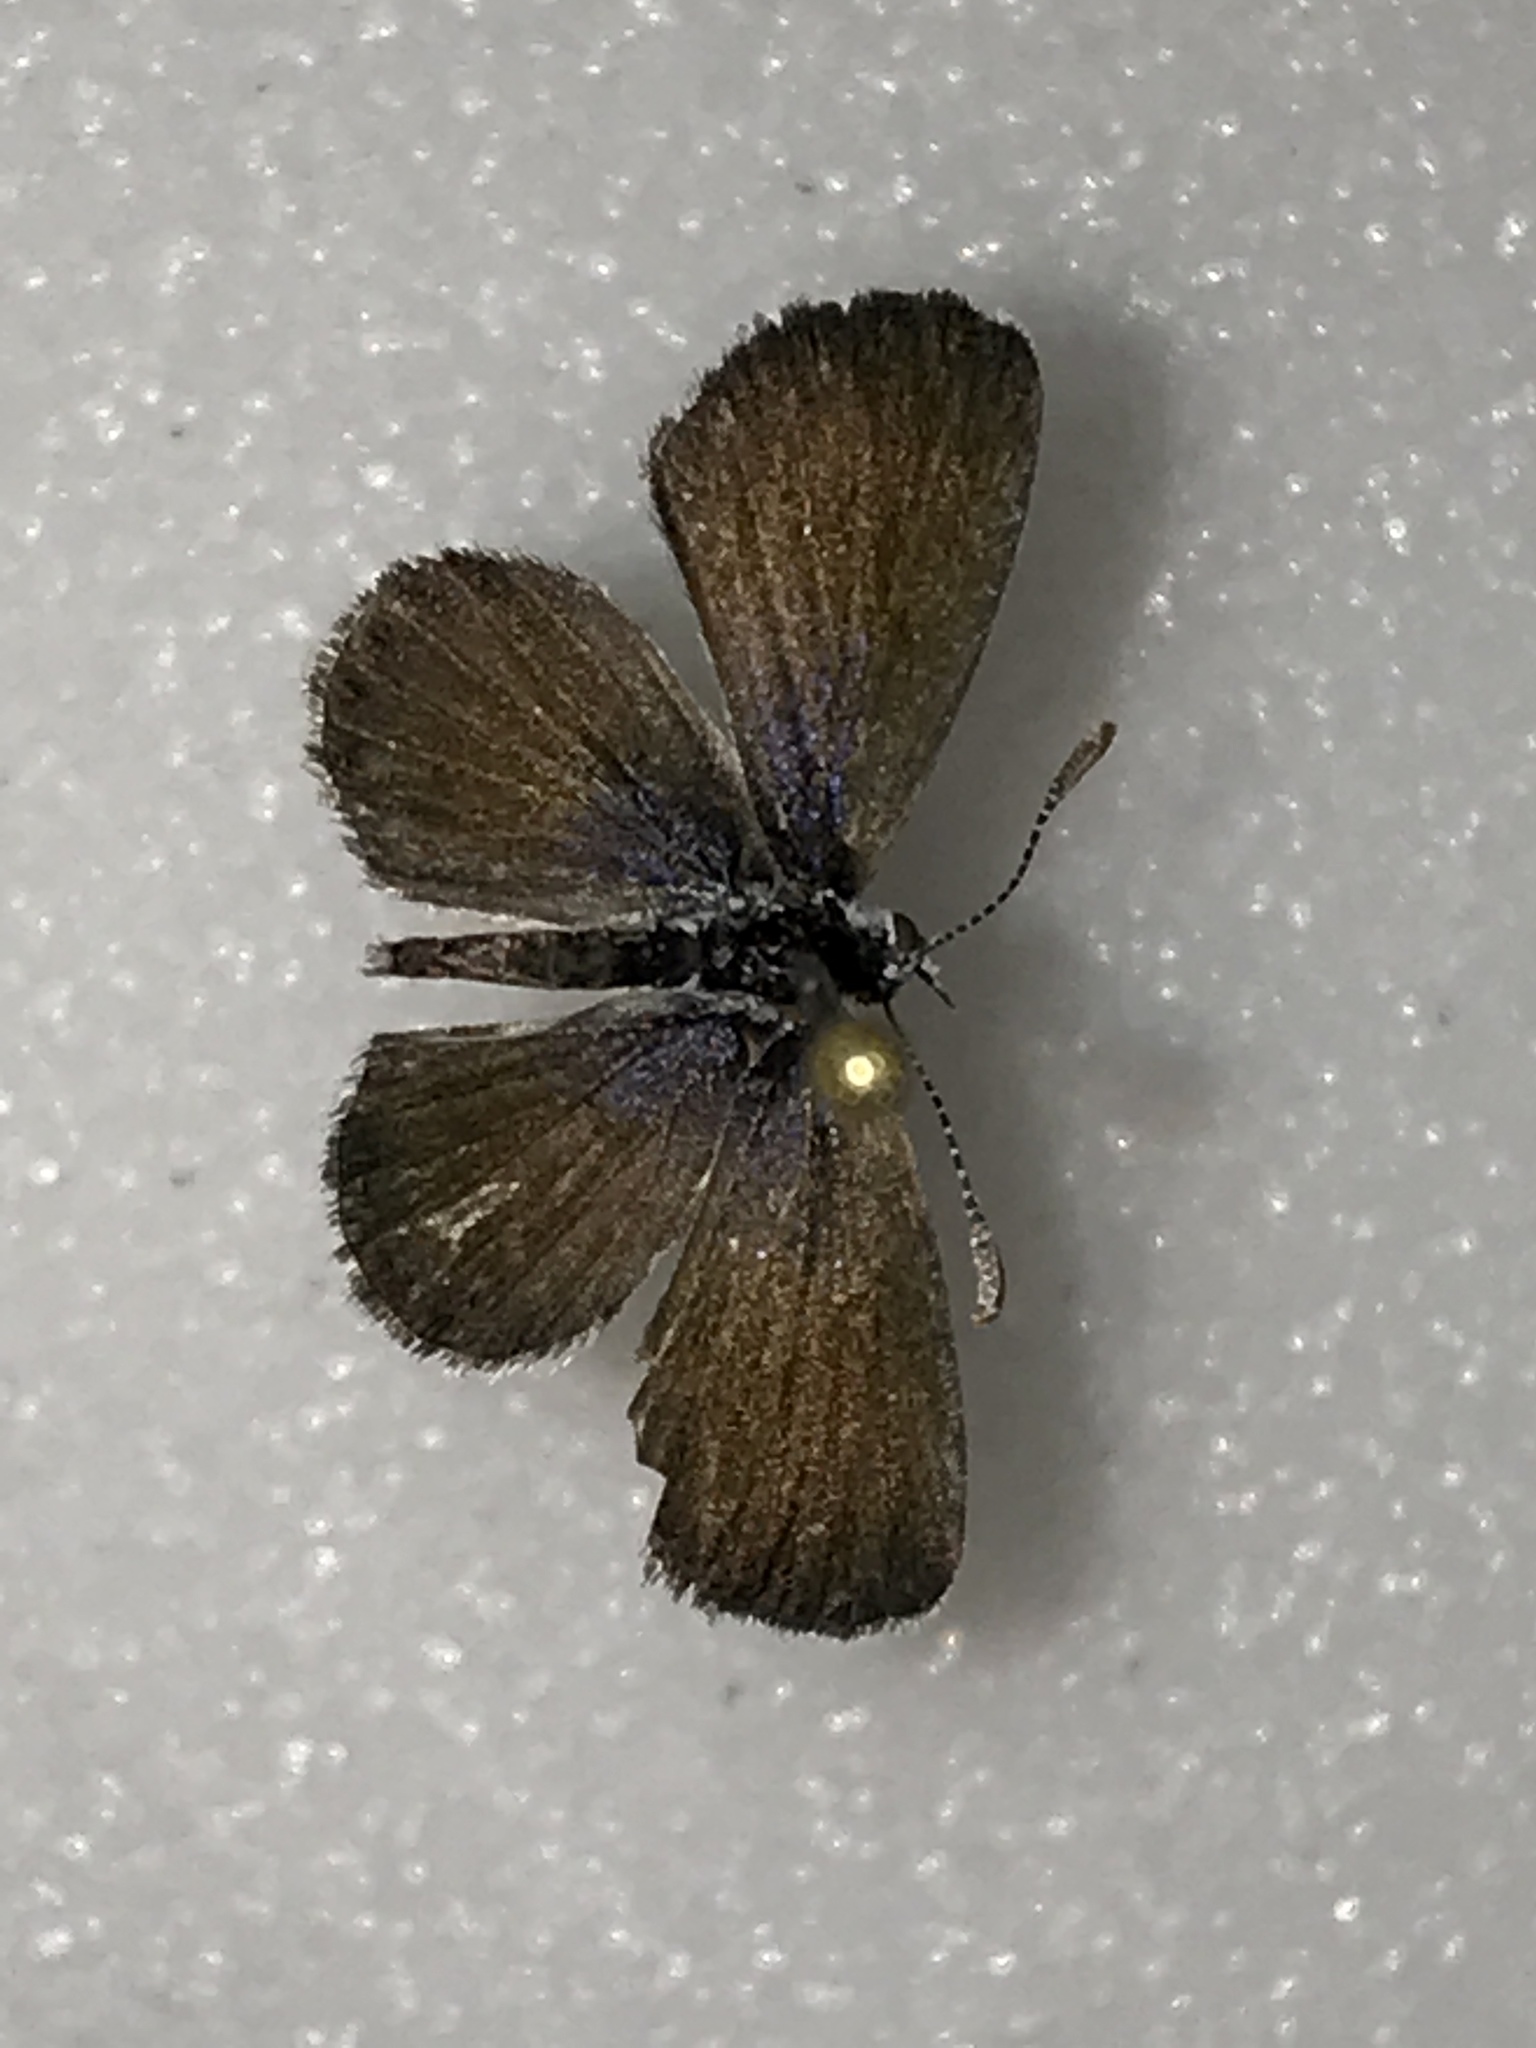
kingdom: Animalia
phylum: Arthropoda
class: Insecta
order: Lepidoptera
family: Lycaenidae
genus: Brephidium
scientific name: Brephidium exilis
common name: Pygmy blue
